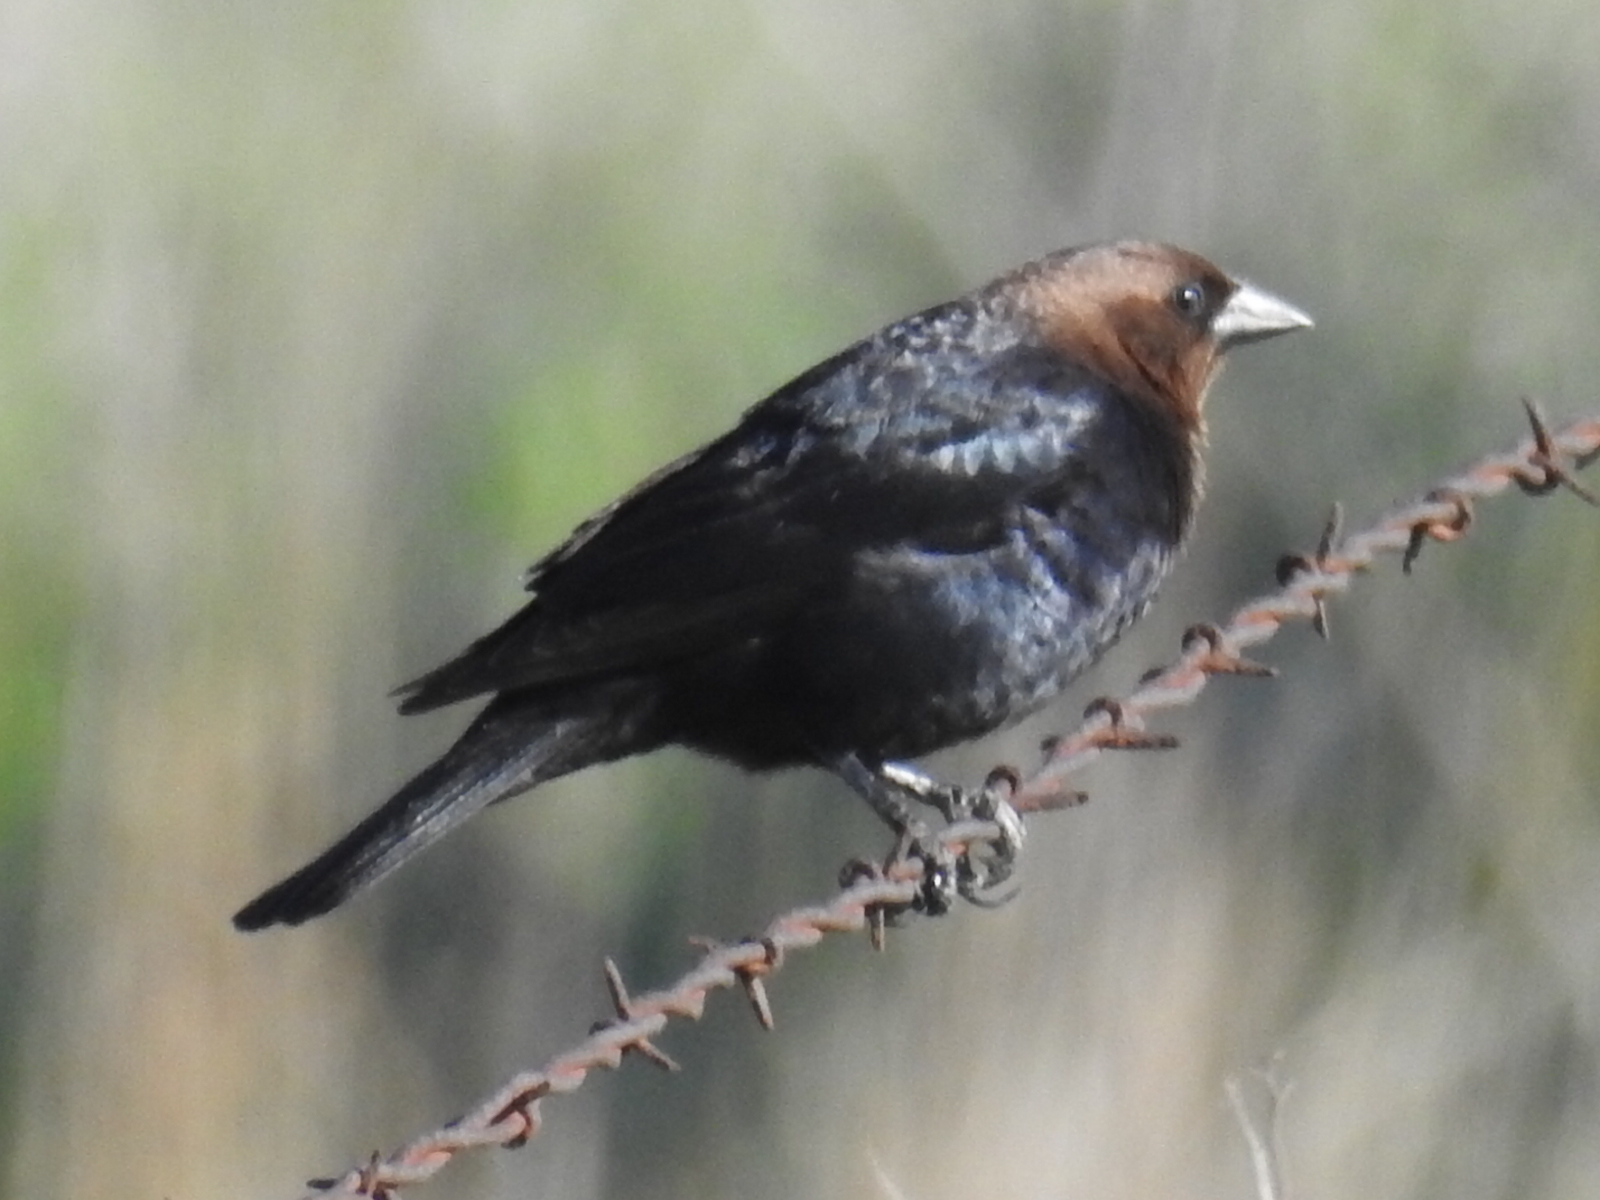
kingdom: Animalia
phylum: Chordata
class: Aves
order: Passeriformes
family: Icteridae
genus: Molothrus
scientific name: Molothrus ater
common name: Brown-headed cowbird
